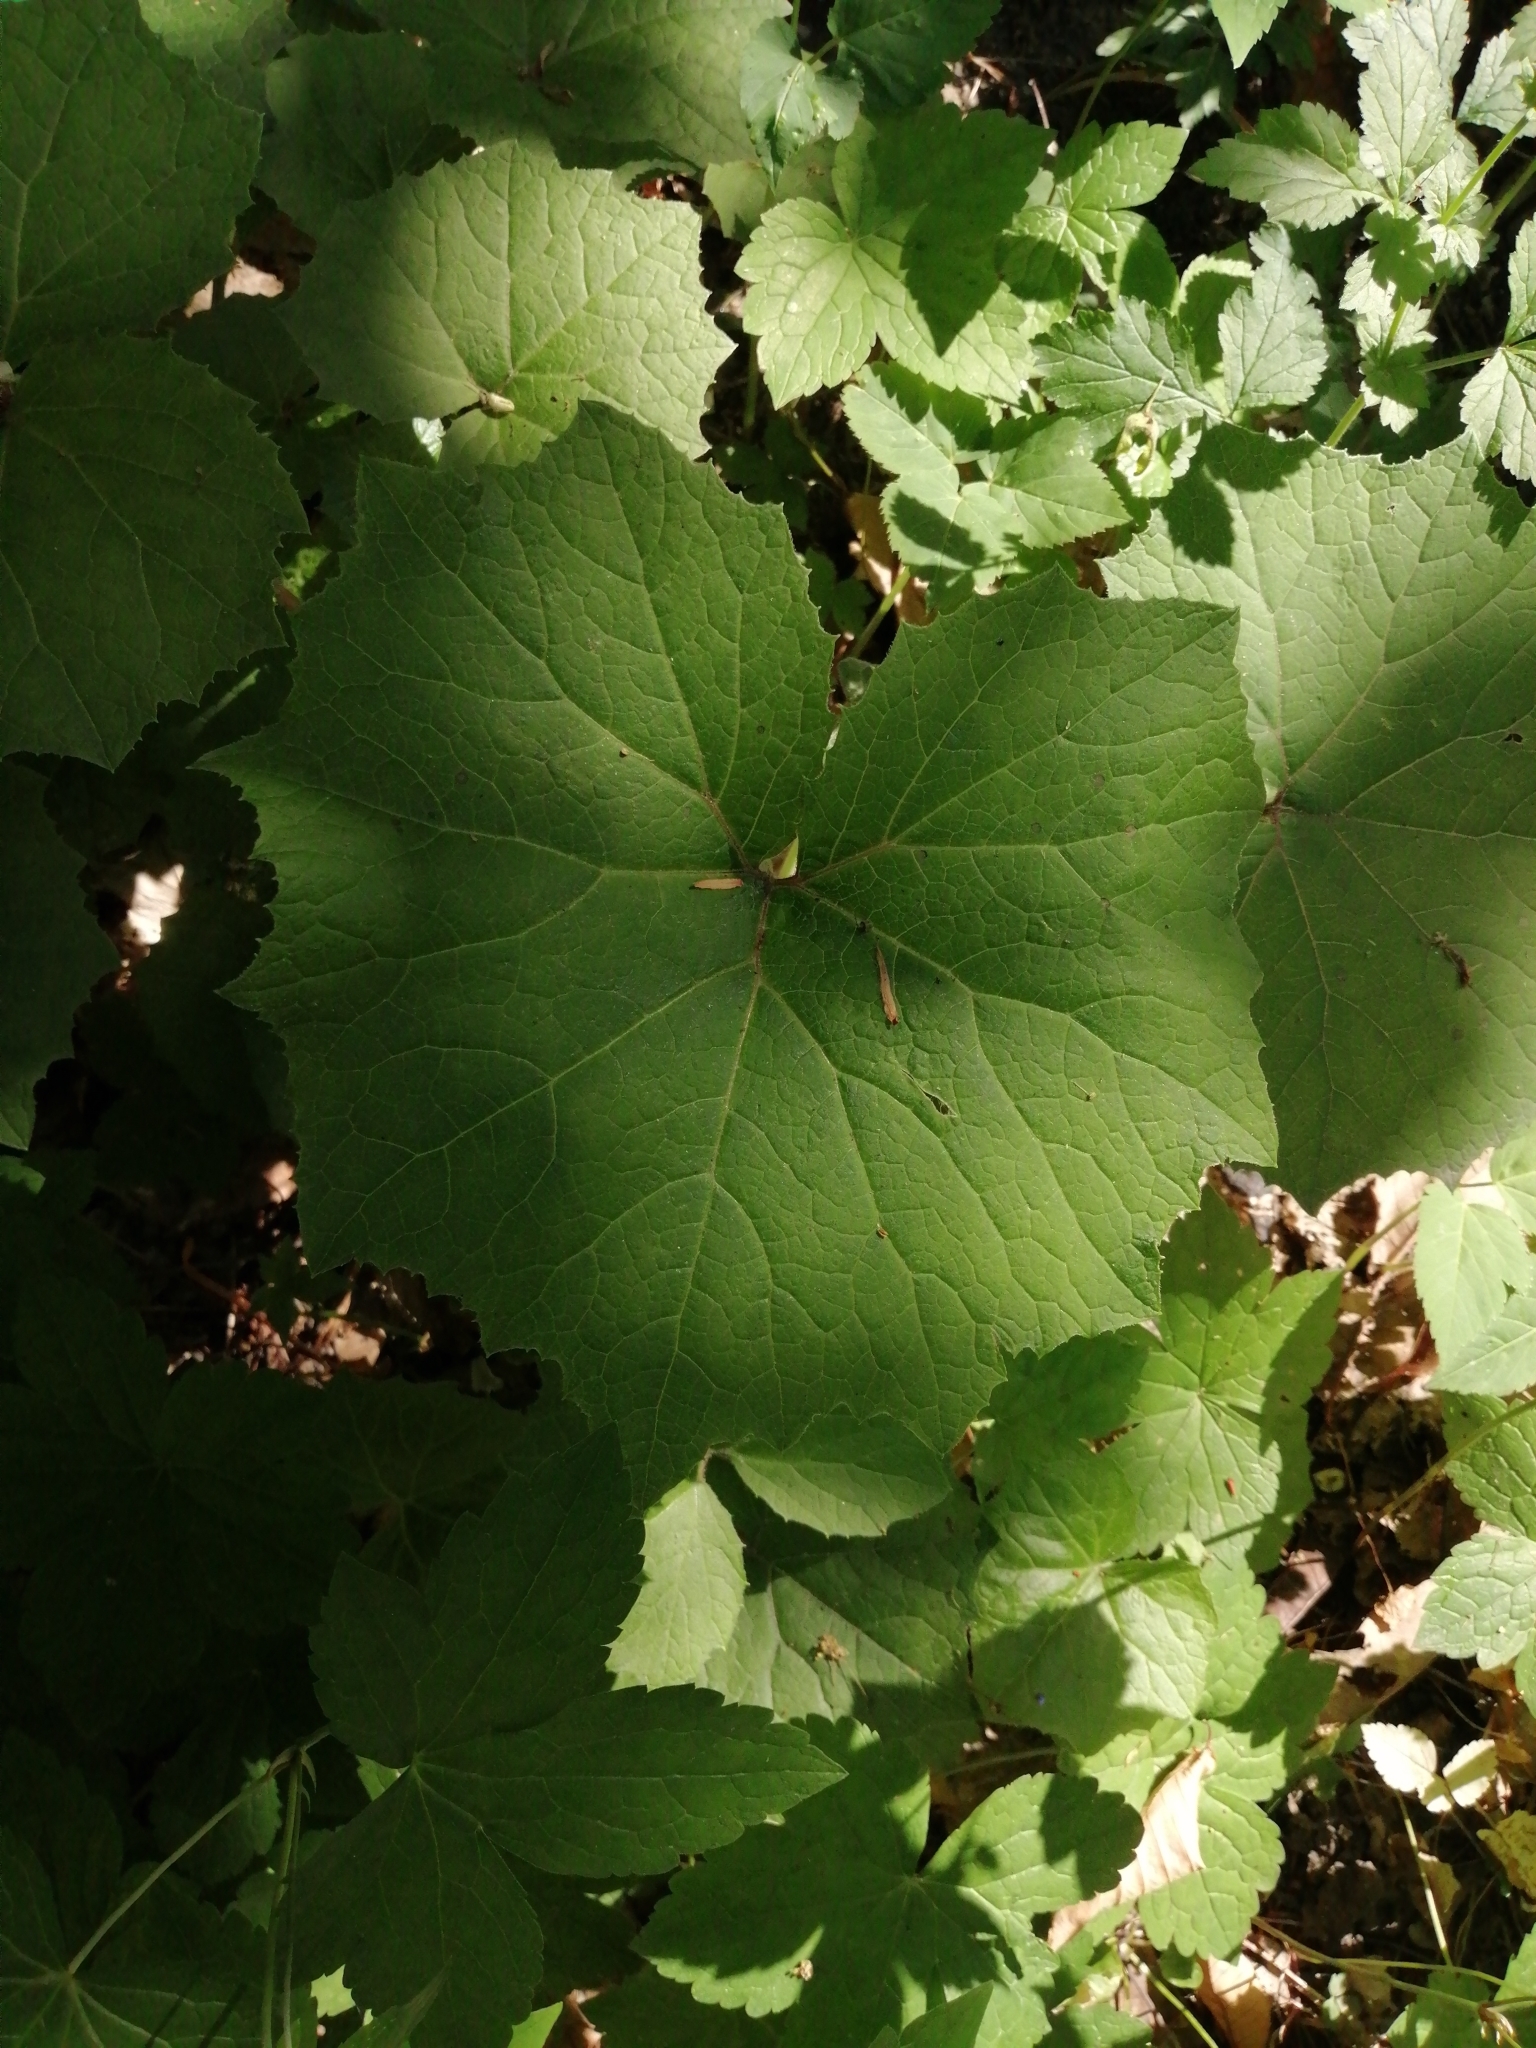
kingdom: Plantae
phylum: Tracheophyta
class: Magnoliopsida
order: Asterales
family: Asteraceae
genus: Petasites
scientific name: Petasites albus
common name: White butterbur
